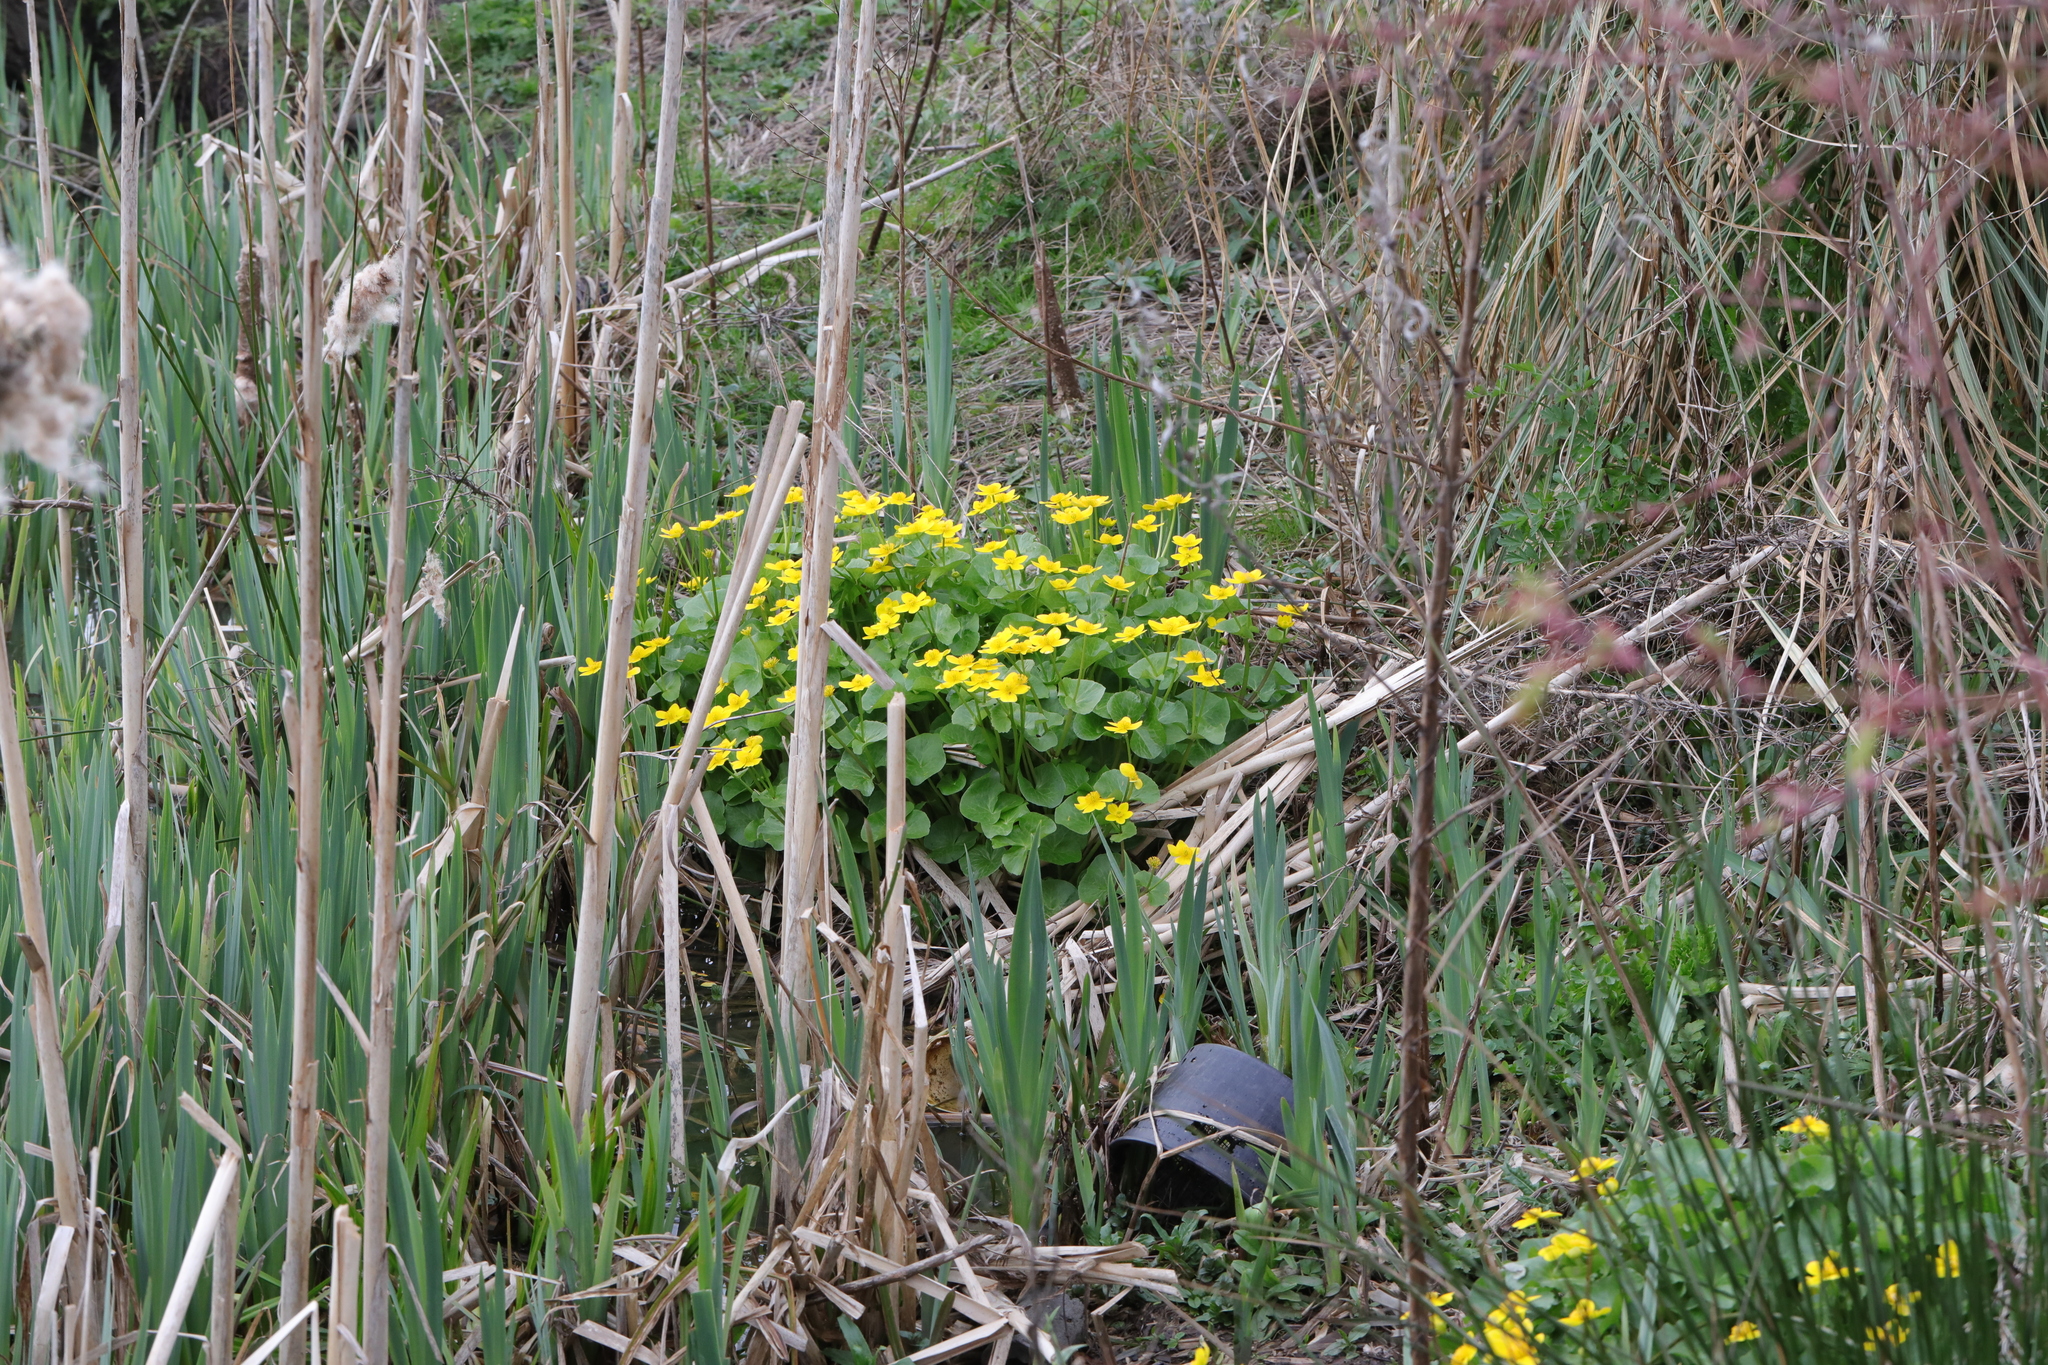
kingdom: Plantae
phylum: Tracheophyta
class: Magnoliopsida
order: Ranunculales
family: Ranunculaceae
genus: Caltha
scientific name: Caltha palustris
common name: Marsh marigold
